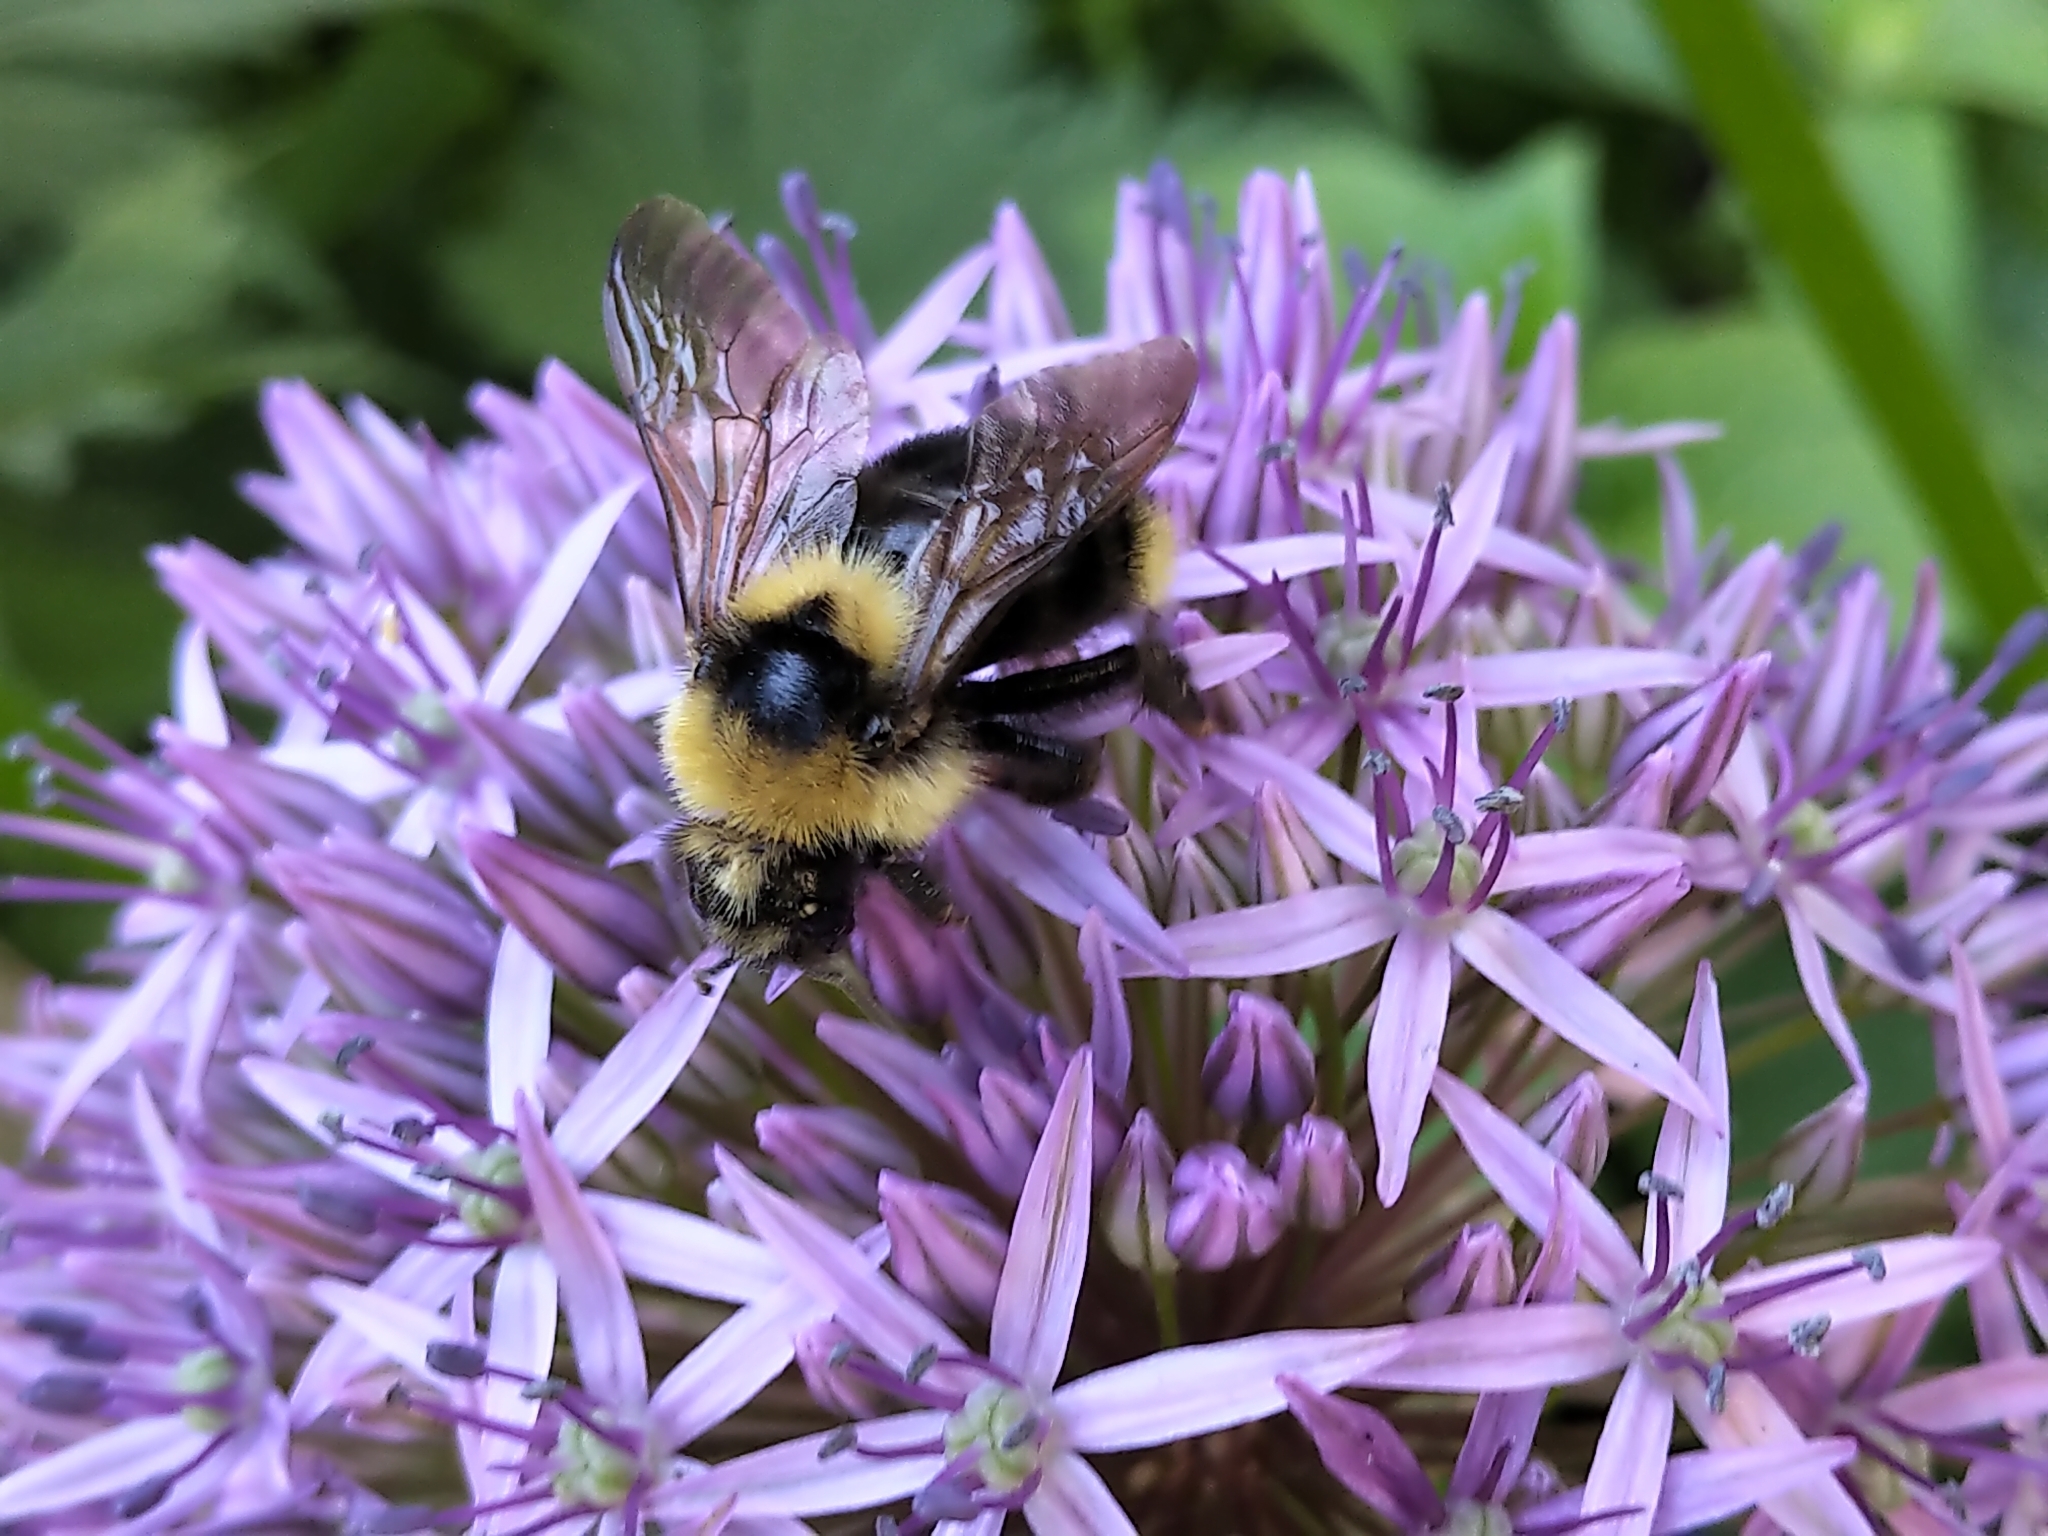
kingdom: Animalia
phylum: Arthropoda
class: Insecta
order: Hymenoptera
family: Apidae
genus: Bombus
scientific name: Bombus insularis
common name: Indiscriminate cuckoo bumble bee
